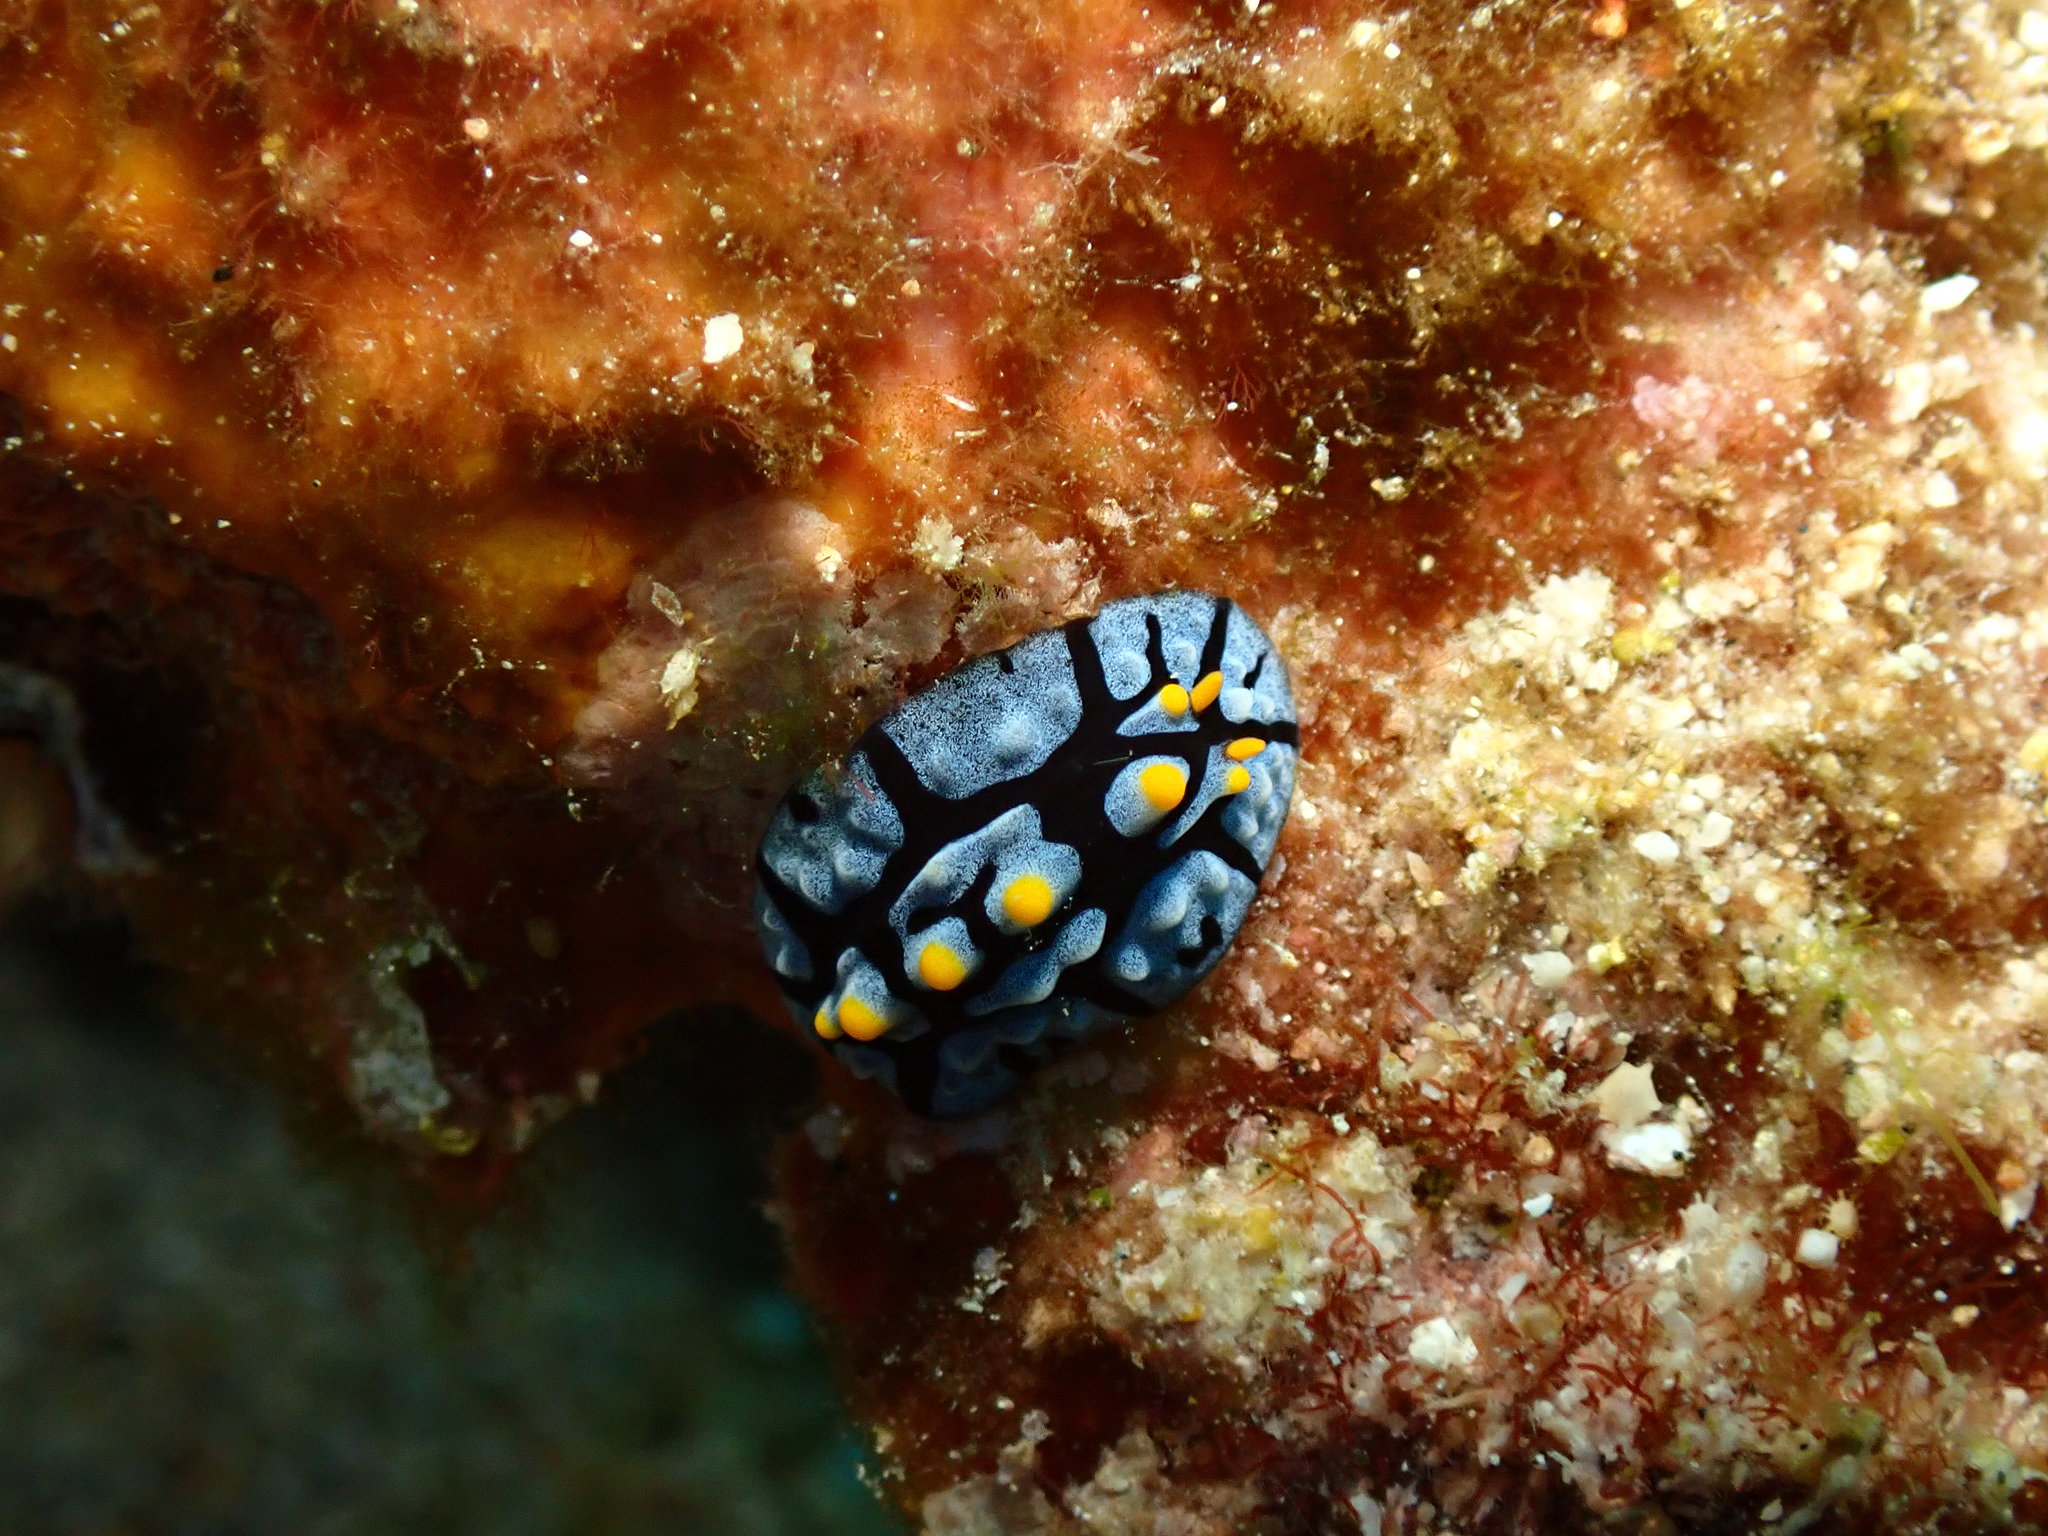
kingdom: Animalia
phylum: Mollusca
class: Gastropoda
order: Nudibranchia
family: Phyllidiidae
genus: Phyllidia
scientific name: Phyllidia picta
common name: Black-rayed phyllidia
